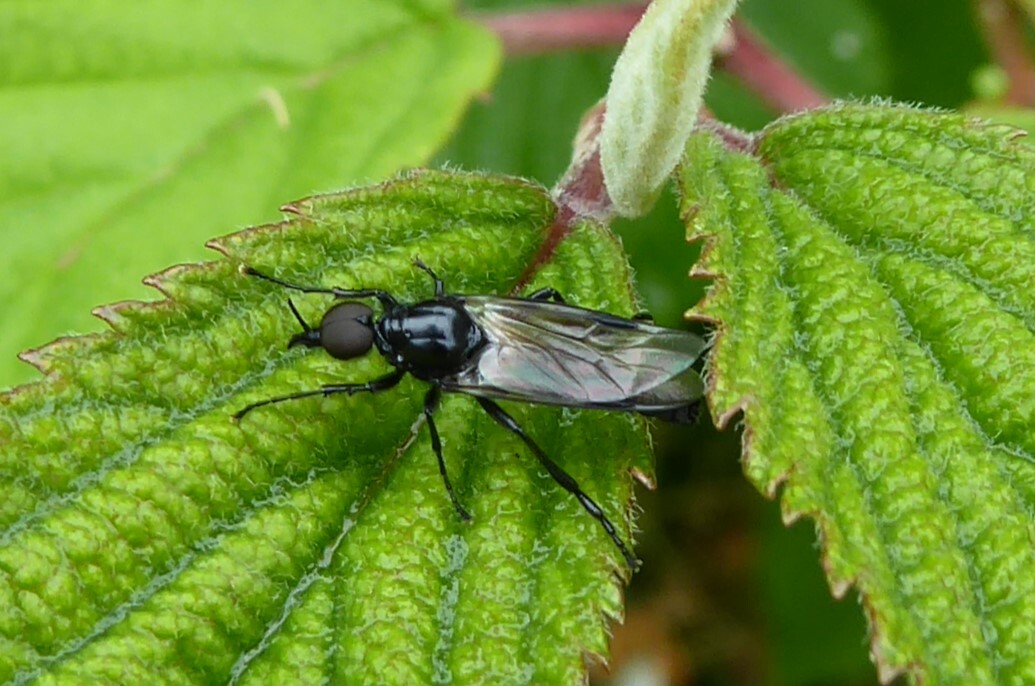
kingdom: Animalia
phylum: Arthropoda
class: Insecta
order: Diptera
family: Bibionidae
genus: Dilophus
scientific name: Dilophus nigrostigma
